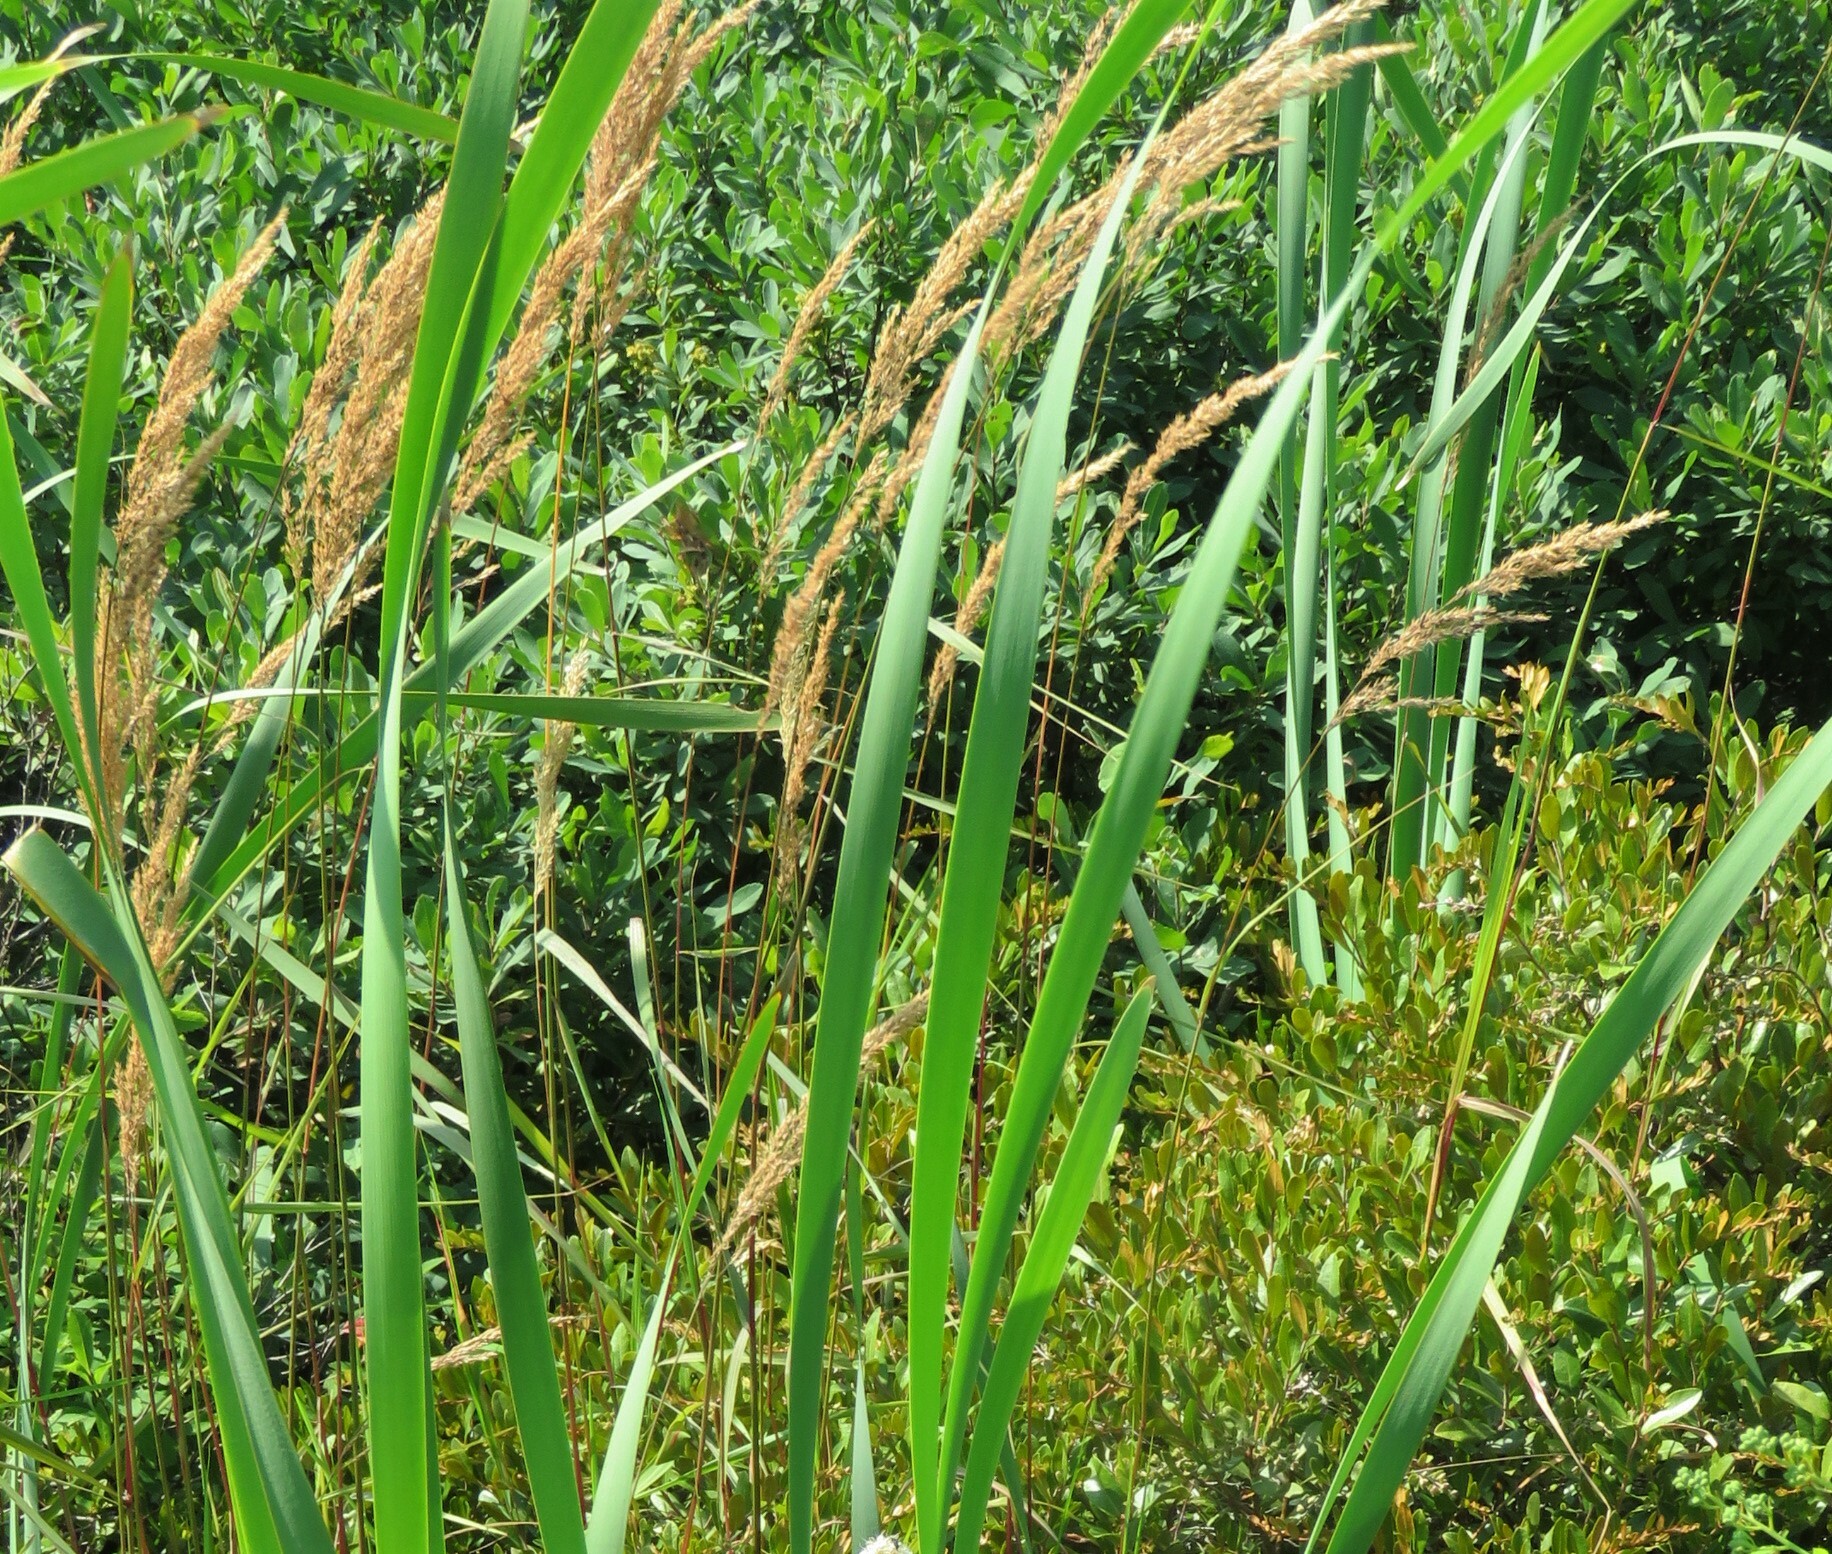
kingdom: Plantae
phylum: Tracheophyta
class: Liliopsida
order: Poales
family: Poaceae
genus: Calamagrostis
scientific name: Calamagrostis canadensis
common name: Canada bluejoint
